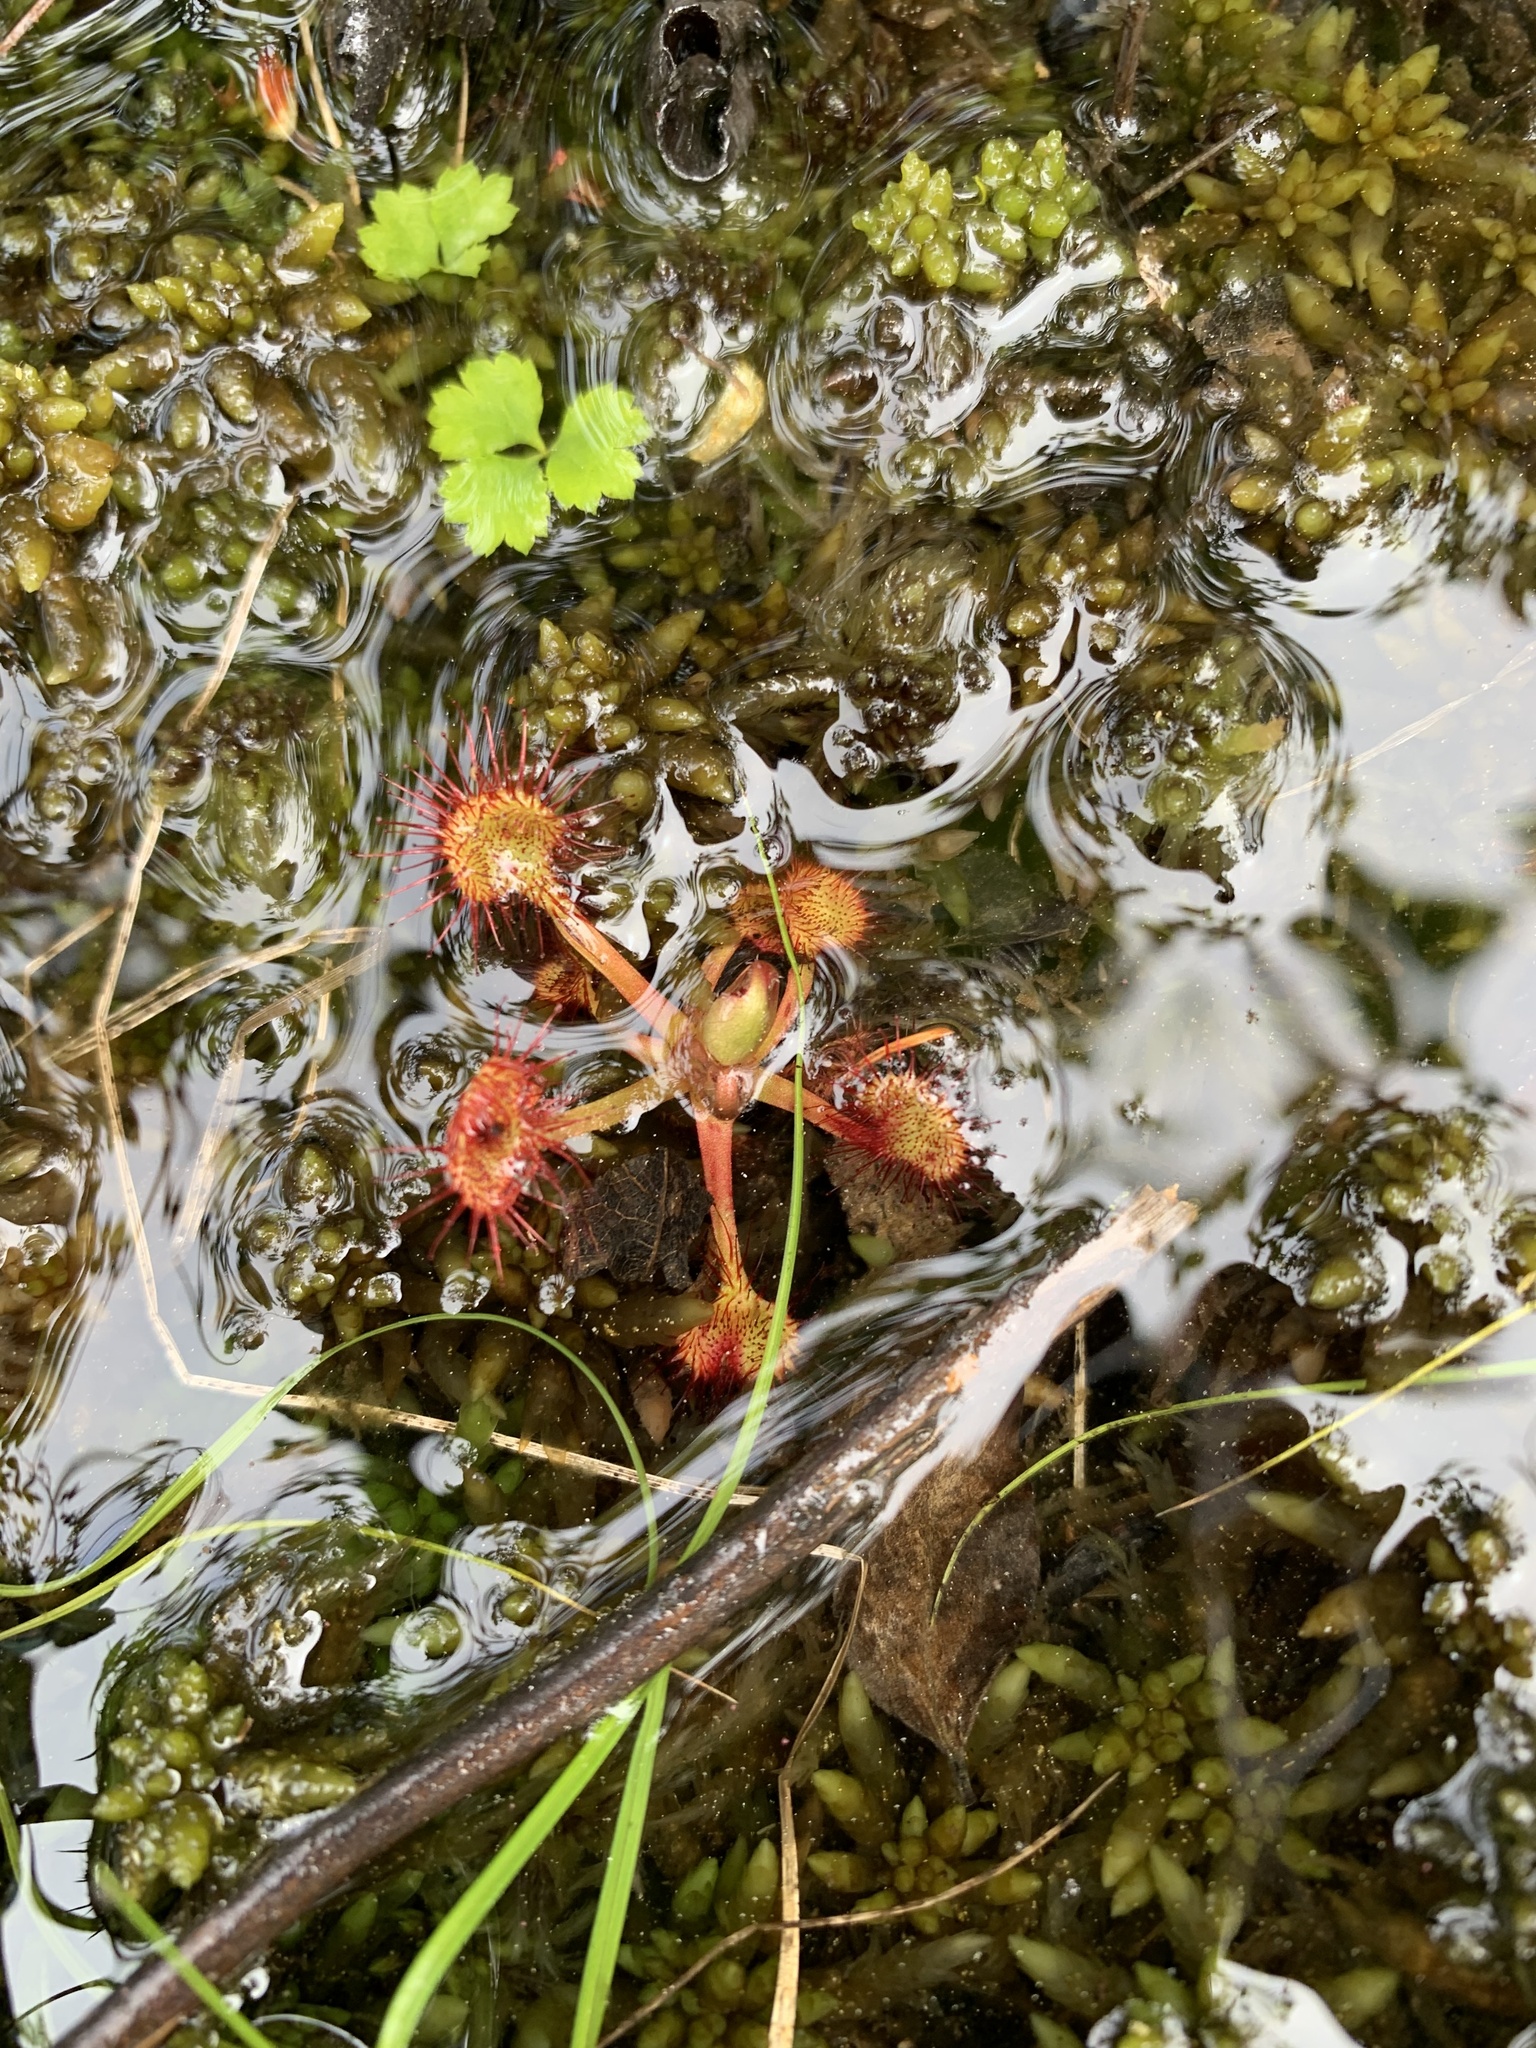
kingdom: Plantae
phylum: Tracheophyta
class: Magnoliopsida
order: Caryophyllales
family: Droseraceae
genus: Drosera
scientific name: Drosera rotundifolia
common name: Round-leaved sundew
